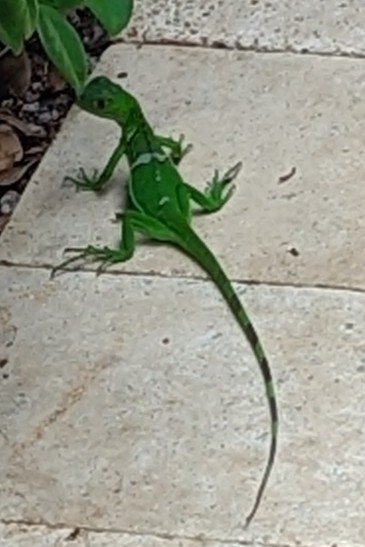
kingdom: Animalia
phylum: Chordata
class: Squamata
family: Iguanidae
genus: Iguana
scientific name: Iguana iguana
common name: Green iguana
